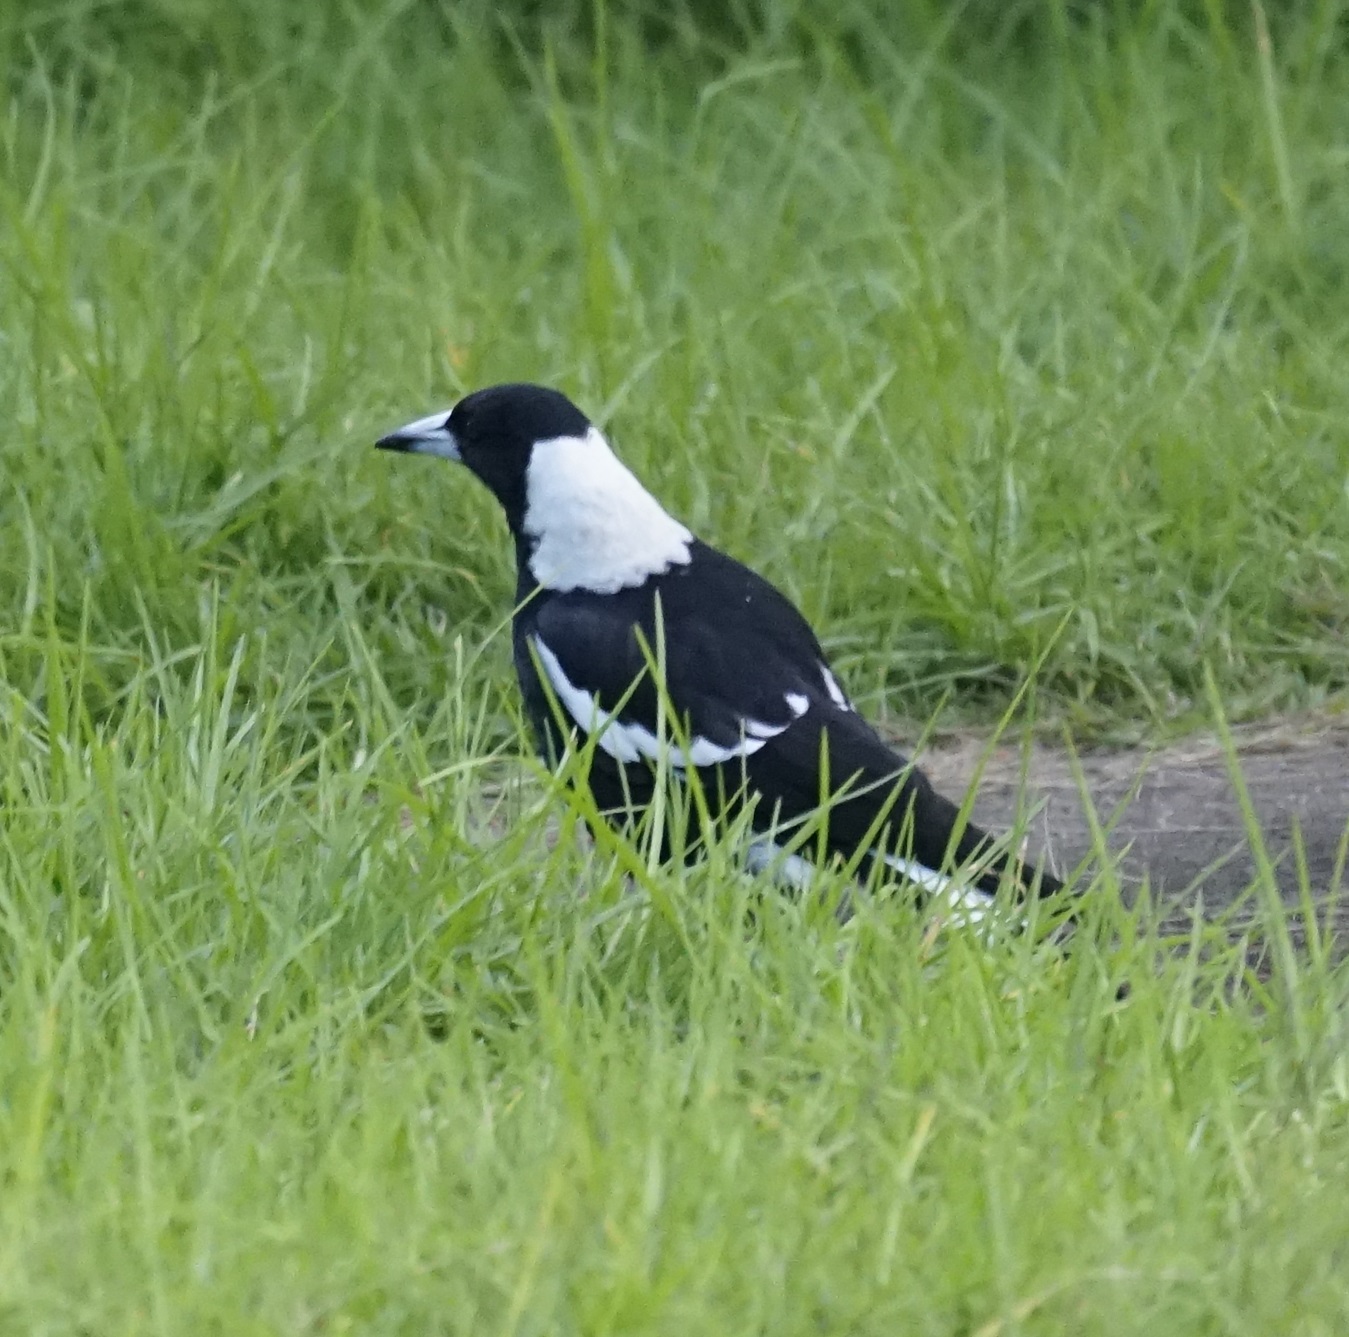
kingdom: Animalia
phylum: Chordata
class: Aves
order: Passeriformes
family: Cracticidae
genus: Gymnorhina
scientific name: Gymnorhina tibicen
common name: Australian magpie
